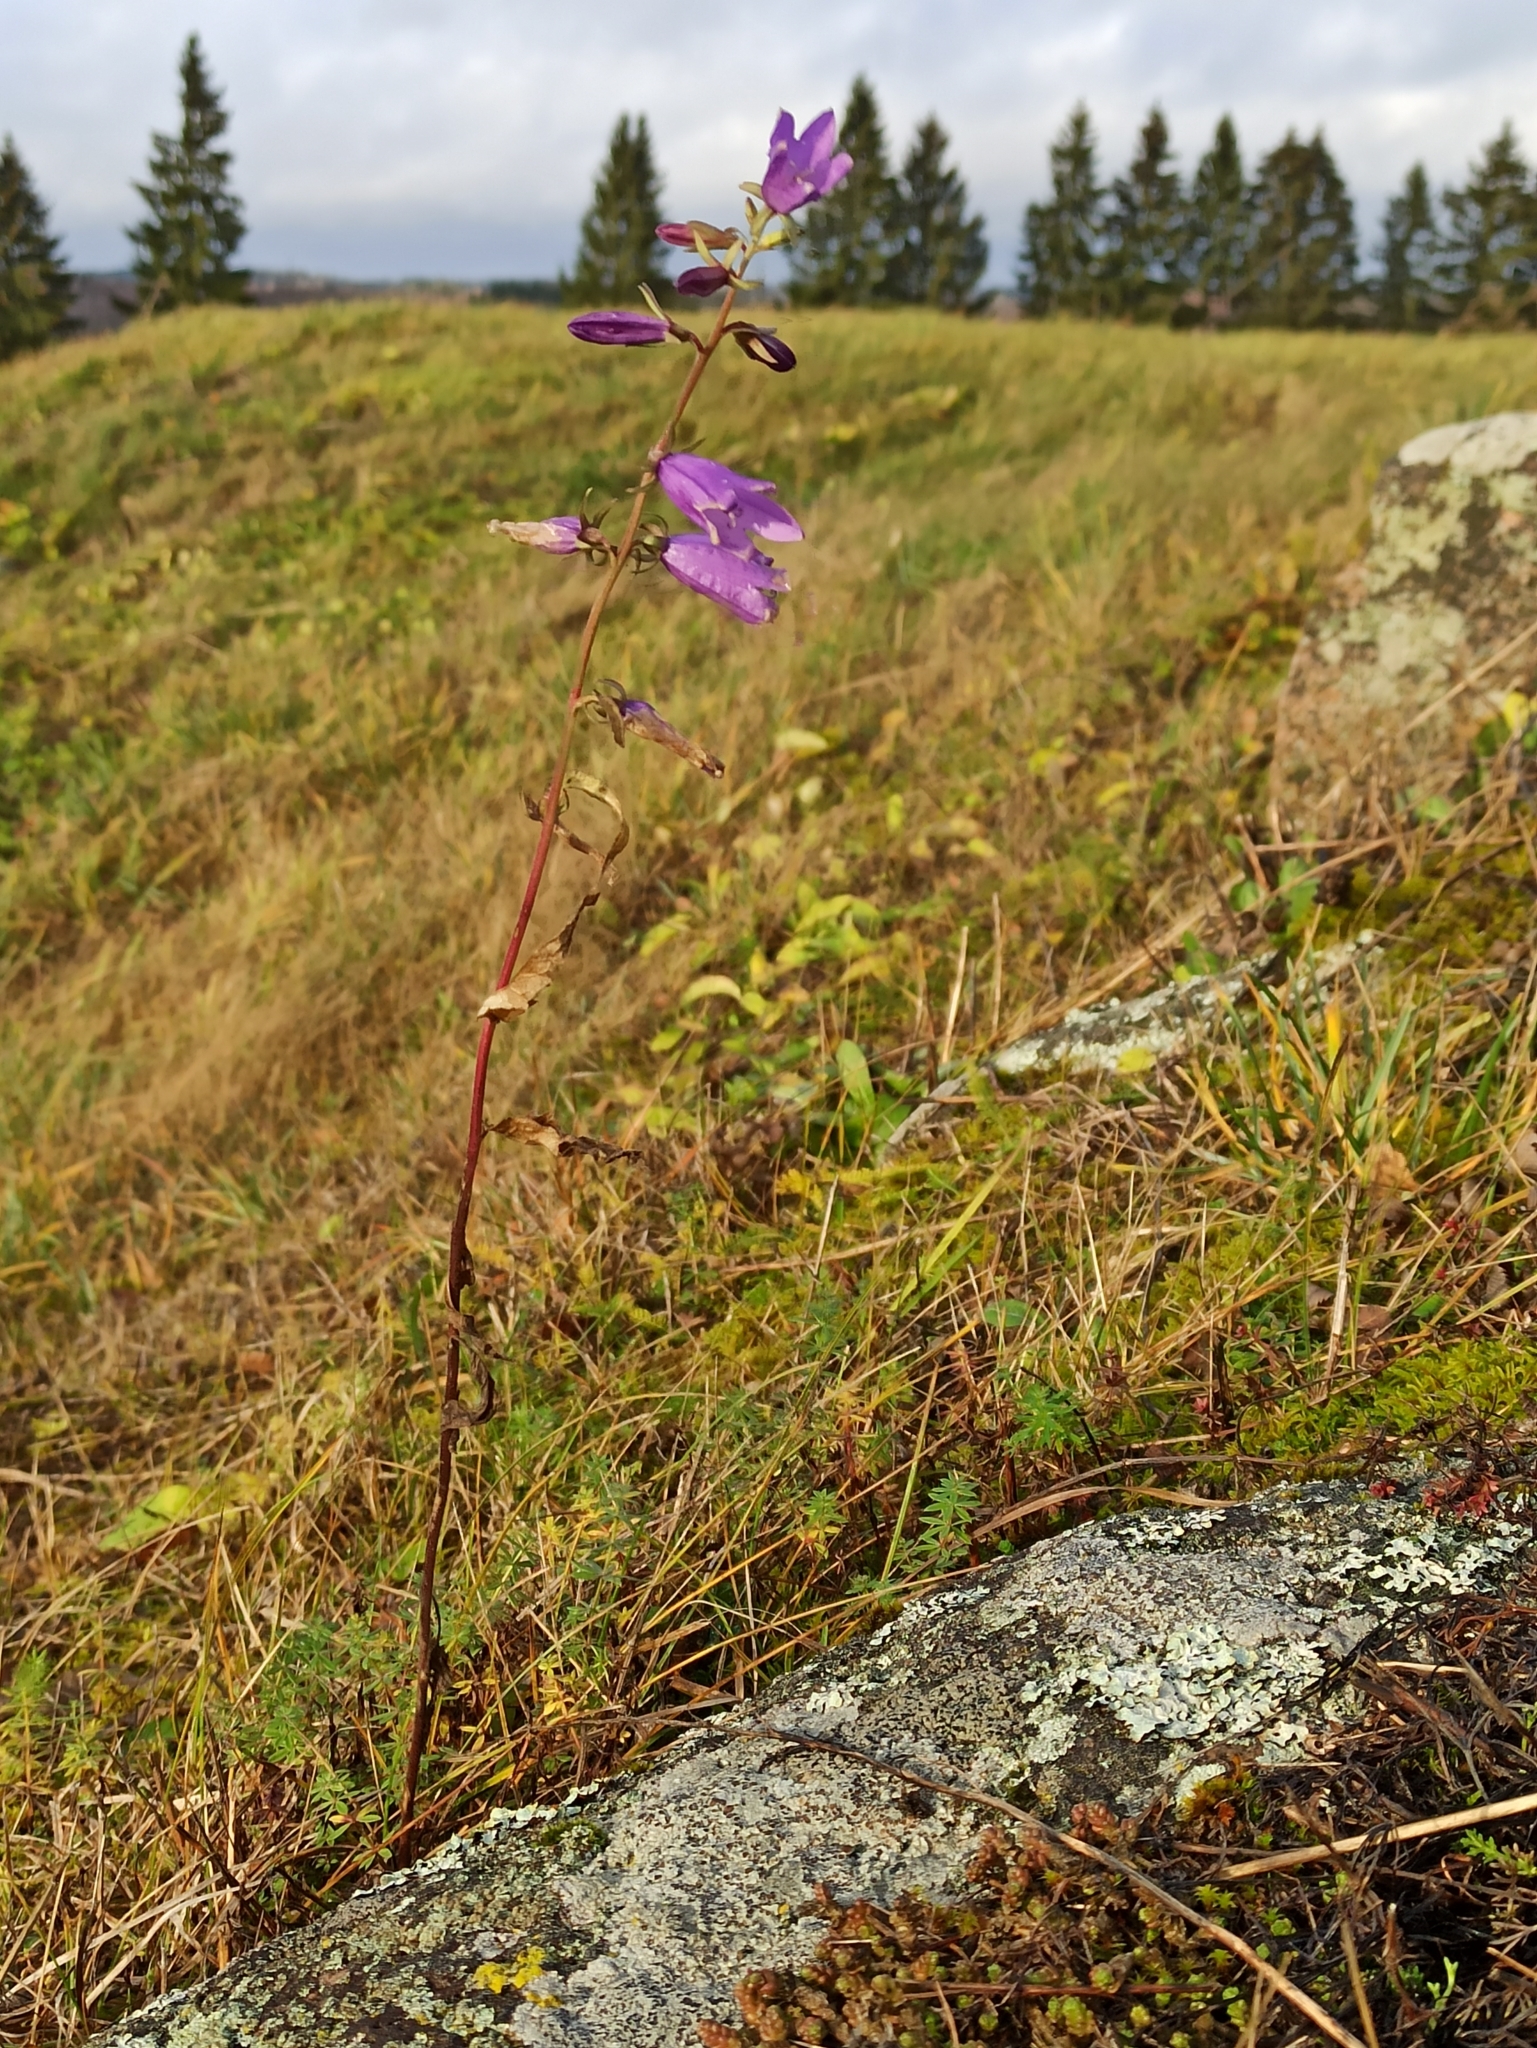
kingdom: Plantae
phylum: Tracheophyta
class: Magnoliopsida
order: Asterales
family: Campanulaceae
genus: Campanula
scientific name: Campanula rapunculoides
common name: Creeping bellflower
